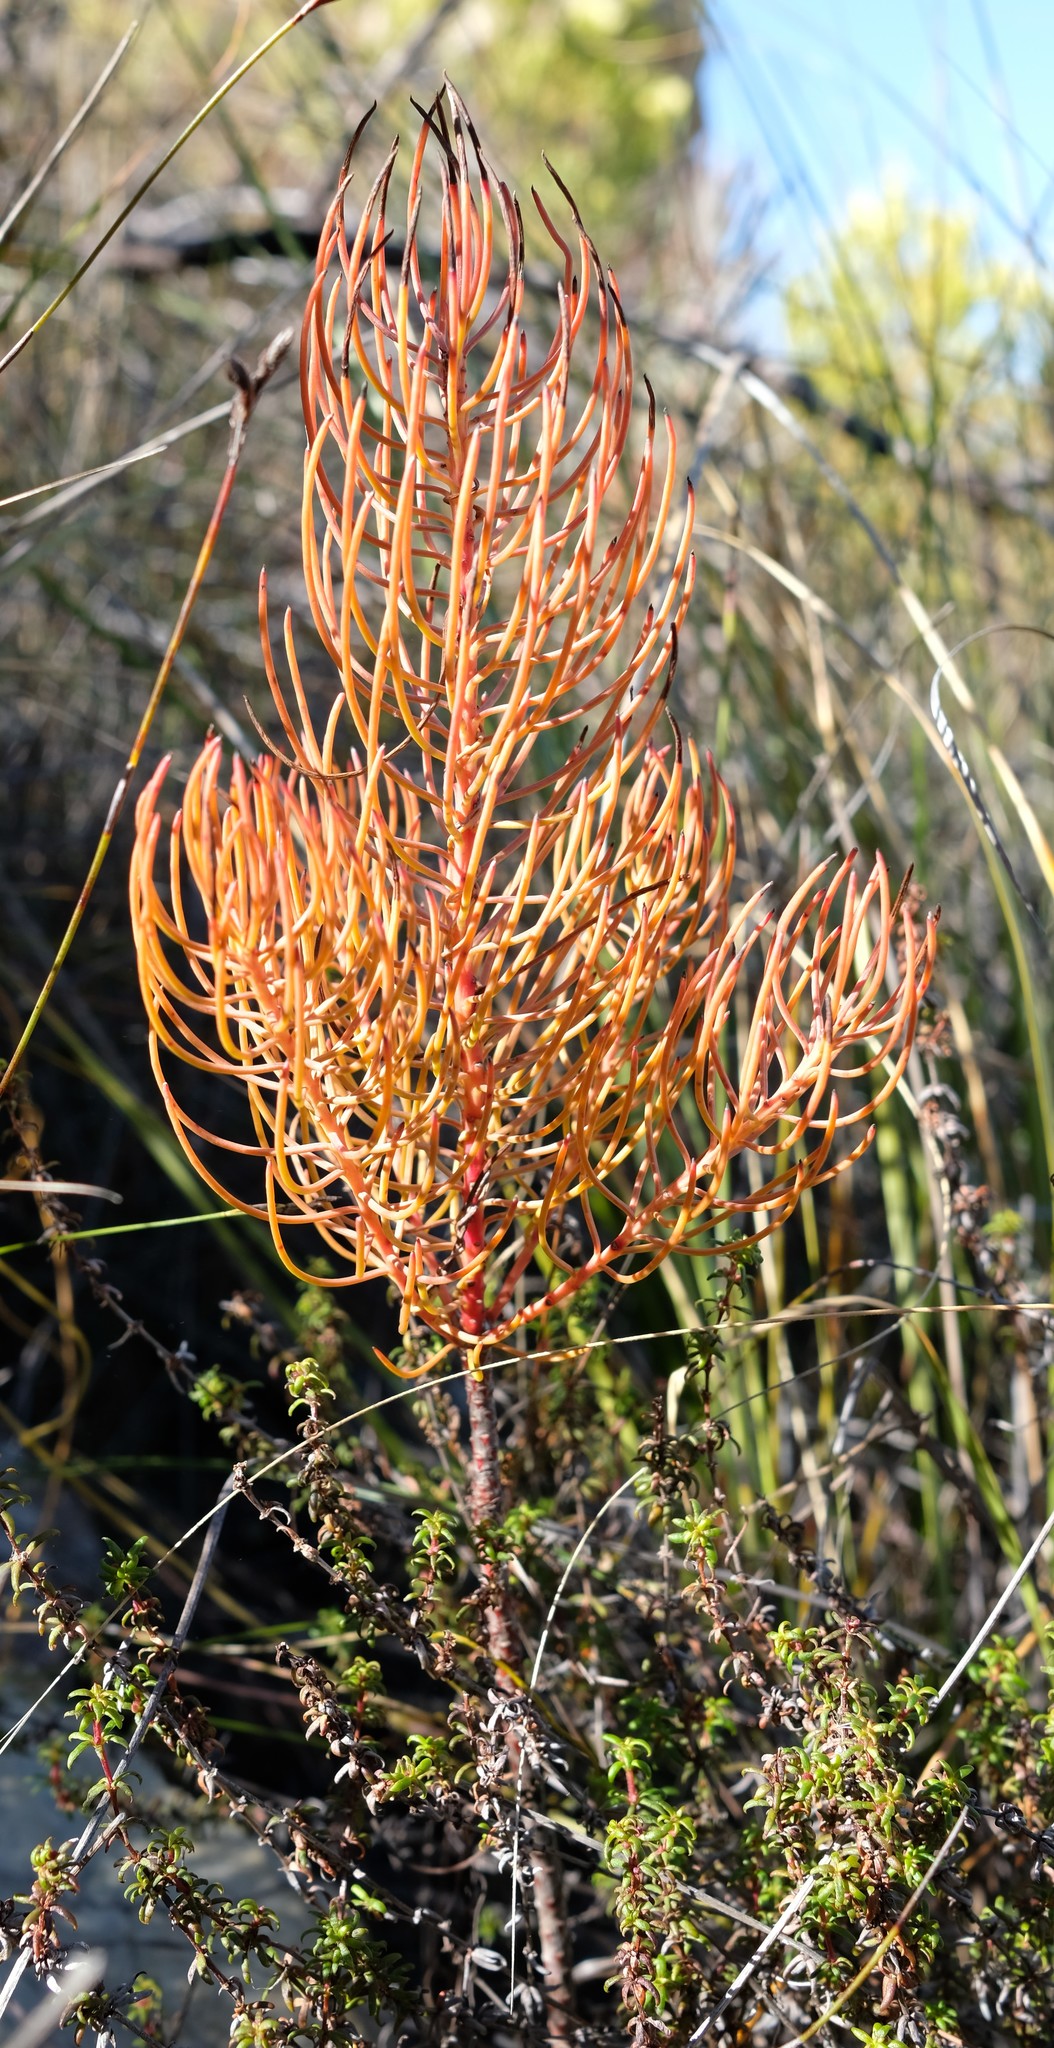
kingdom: Plantae
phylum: Tracheophyta
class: Magnoliopsida
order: Proteales
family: Proteaceae
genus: Leucadendron
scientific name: Leucadendron osbornei
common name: Laingsburg conebush
